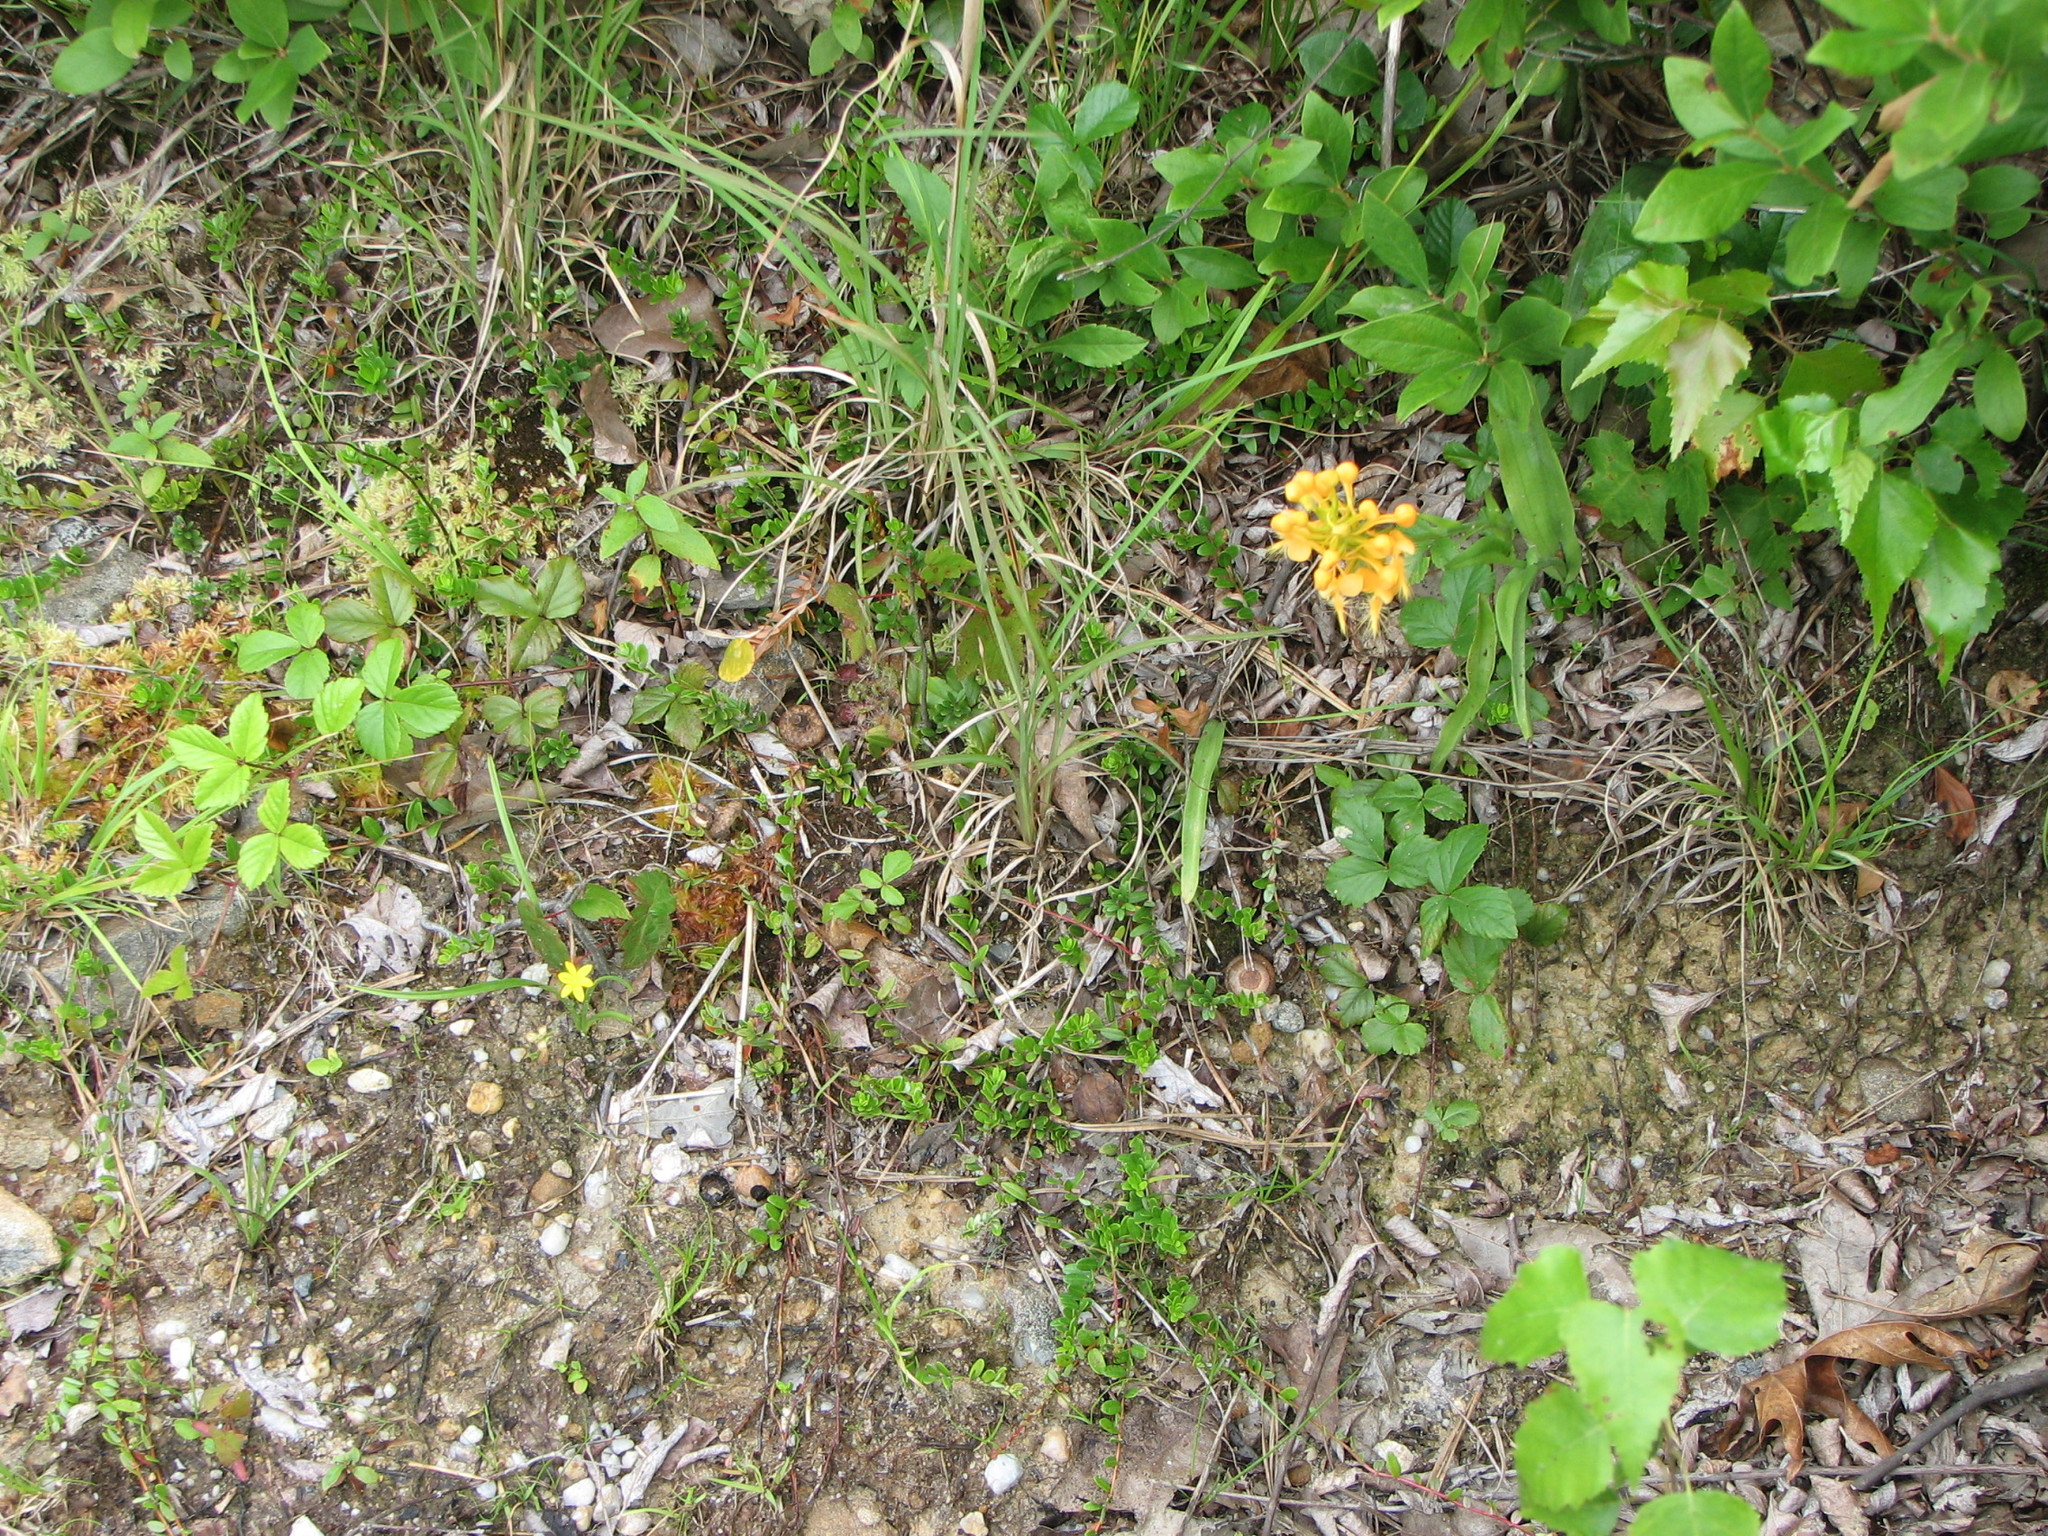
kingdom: Plantae
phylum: Tracheophyta
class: Liliopsida
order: Asparagales
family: Hypoxidaceae
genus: Hypoxis
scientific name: Hypoxis hirsuta
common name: Common goldstar
